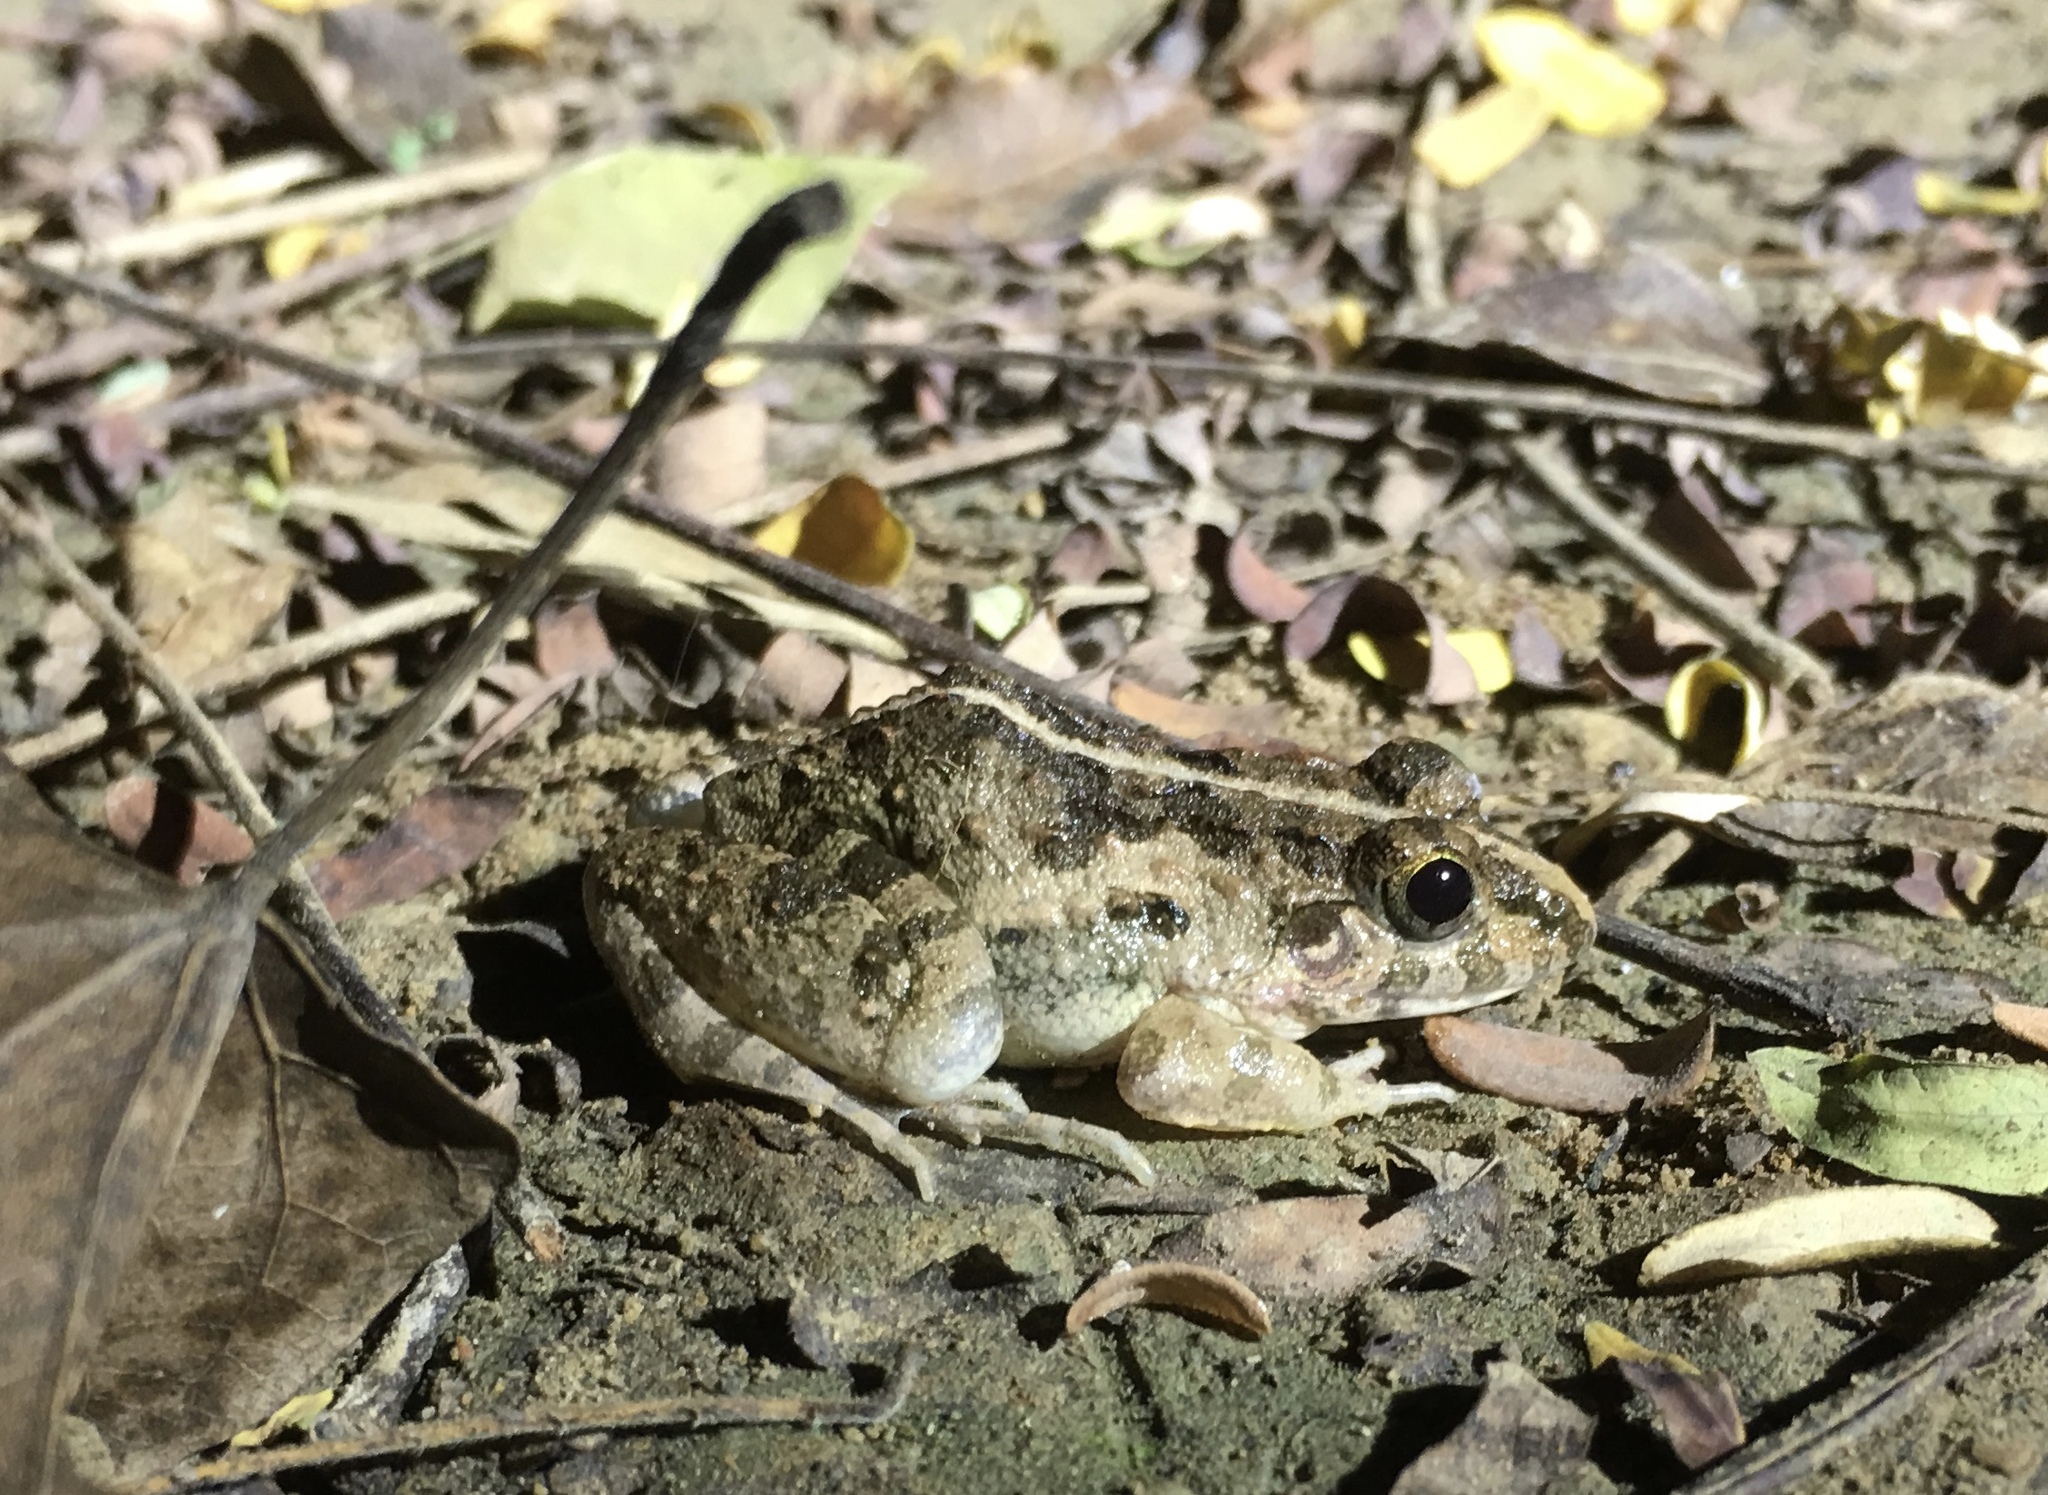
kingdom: Animalia
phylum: Chordata
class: Amphibia
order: Anura
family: Dicroglossidae
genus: Fejervarya
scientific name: Fejervarya limnocharis
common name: Asian grass frog/common pond frog/field frog/grass frog/indian rice frog
